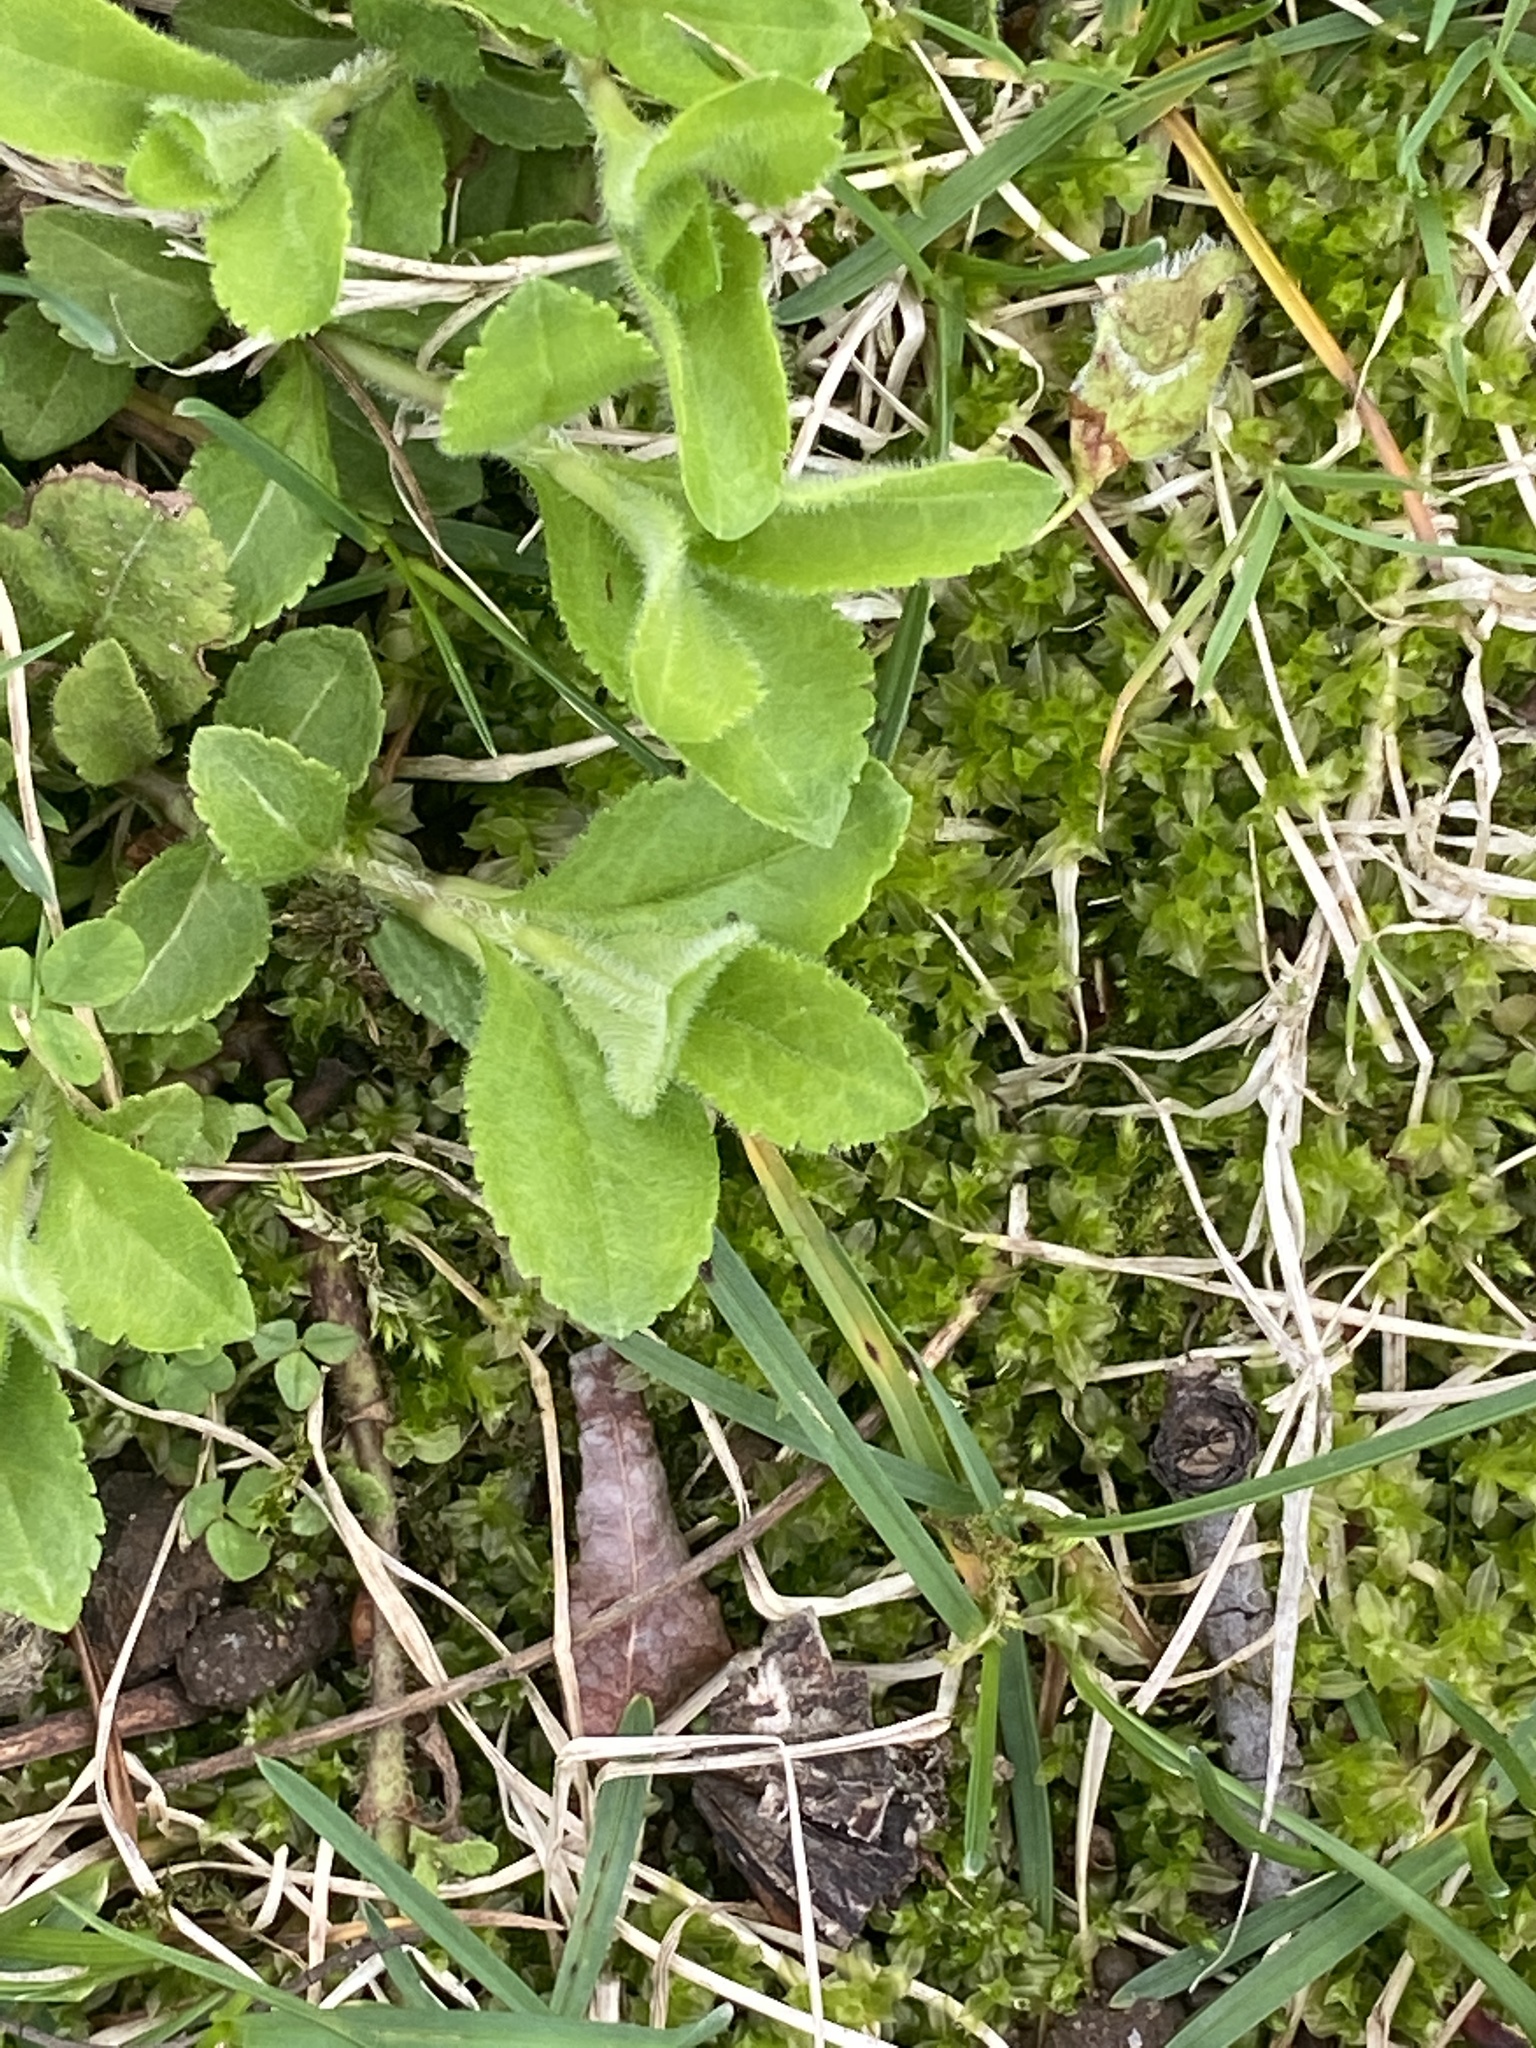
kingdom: Plantae
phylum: Tracheophyta
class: Magnoliopsida
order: Lamiales
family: Plantaginaceae
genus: Veronica
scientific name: Veronica officinalis
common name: Common speedwell
